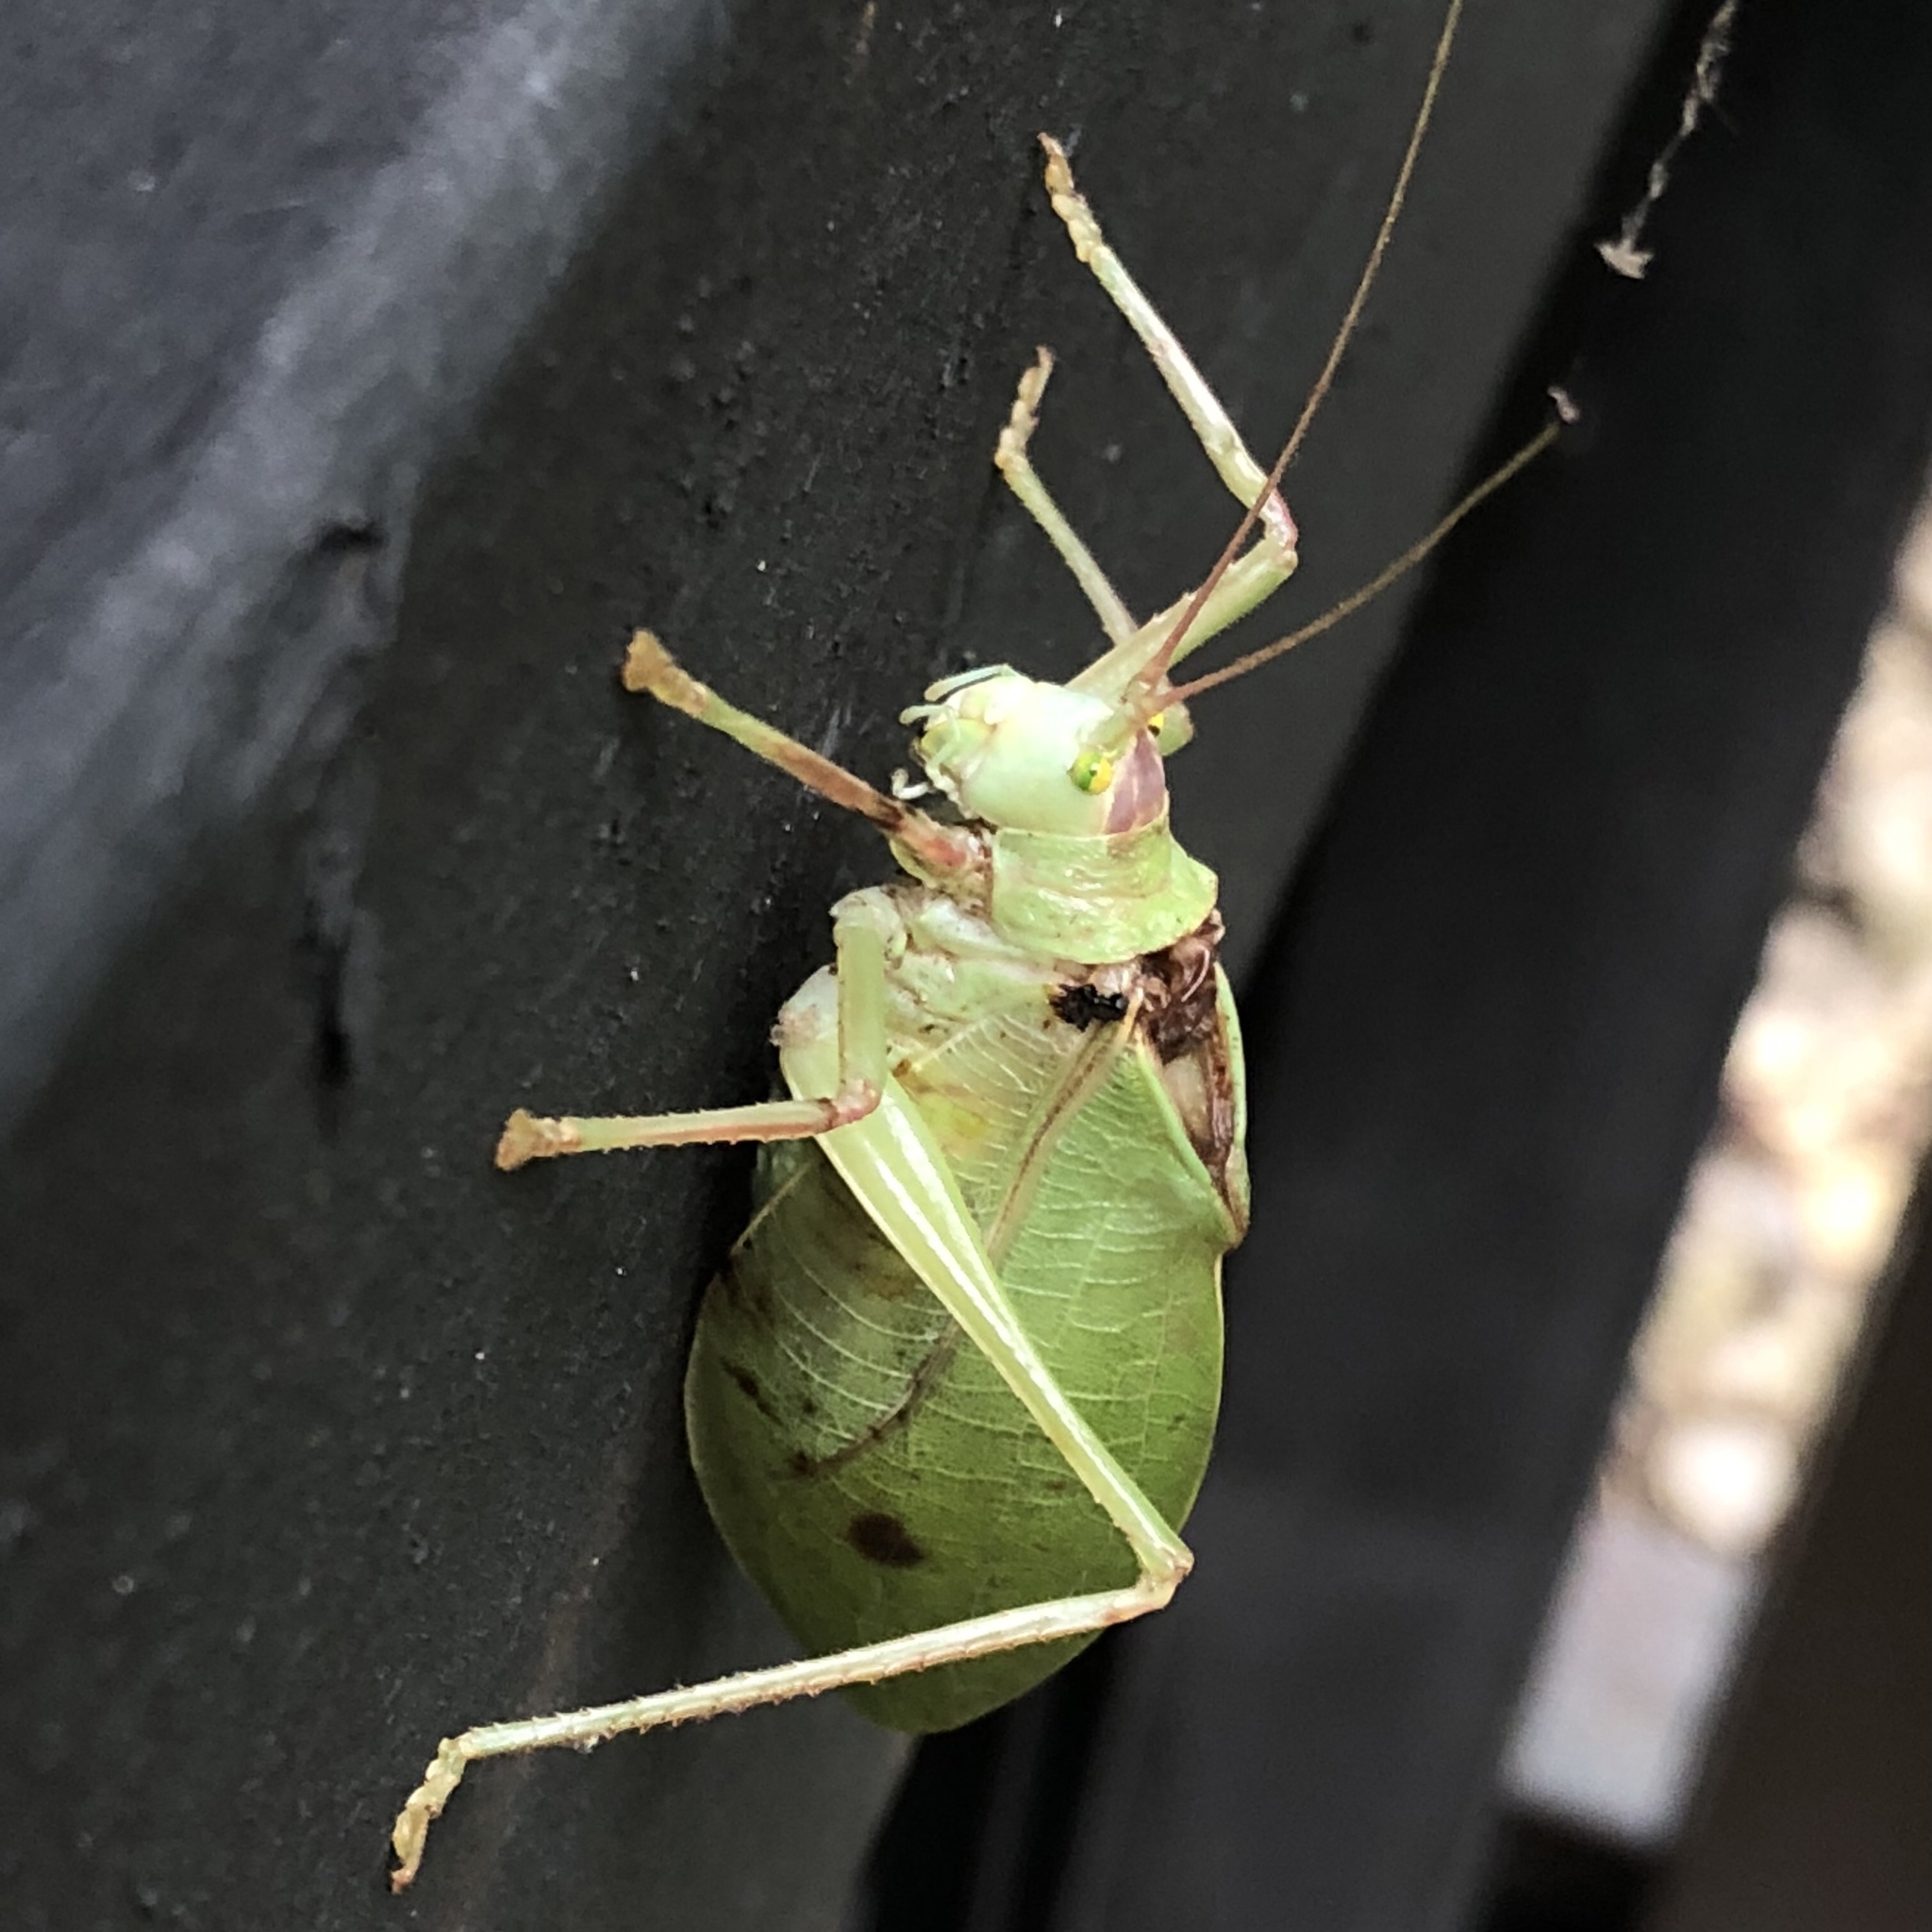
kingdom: Animalia
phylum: Arthropoda
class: Insecta
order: Orthoptera
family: Tettigoniidae
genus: Pterophylla
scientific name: Pterophylla camellifolia
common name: Common true katydid
